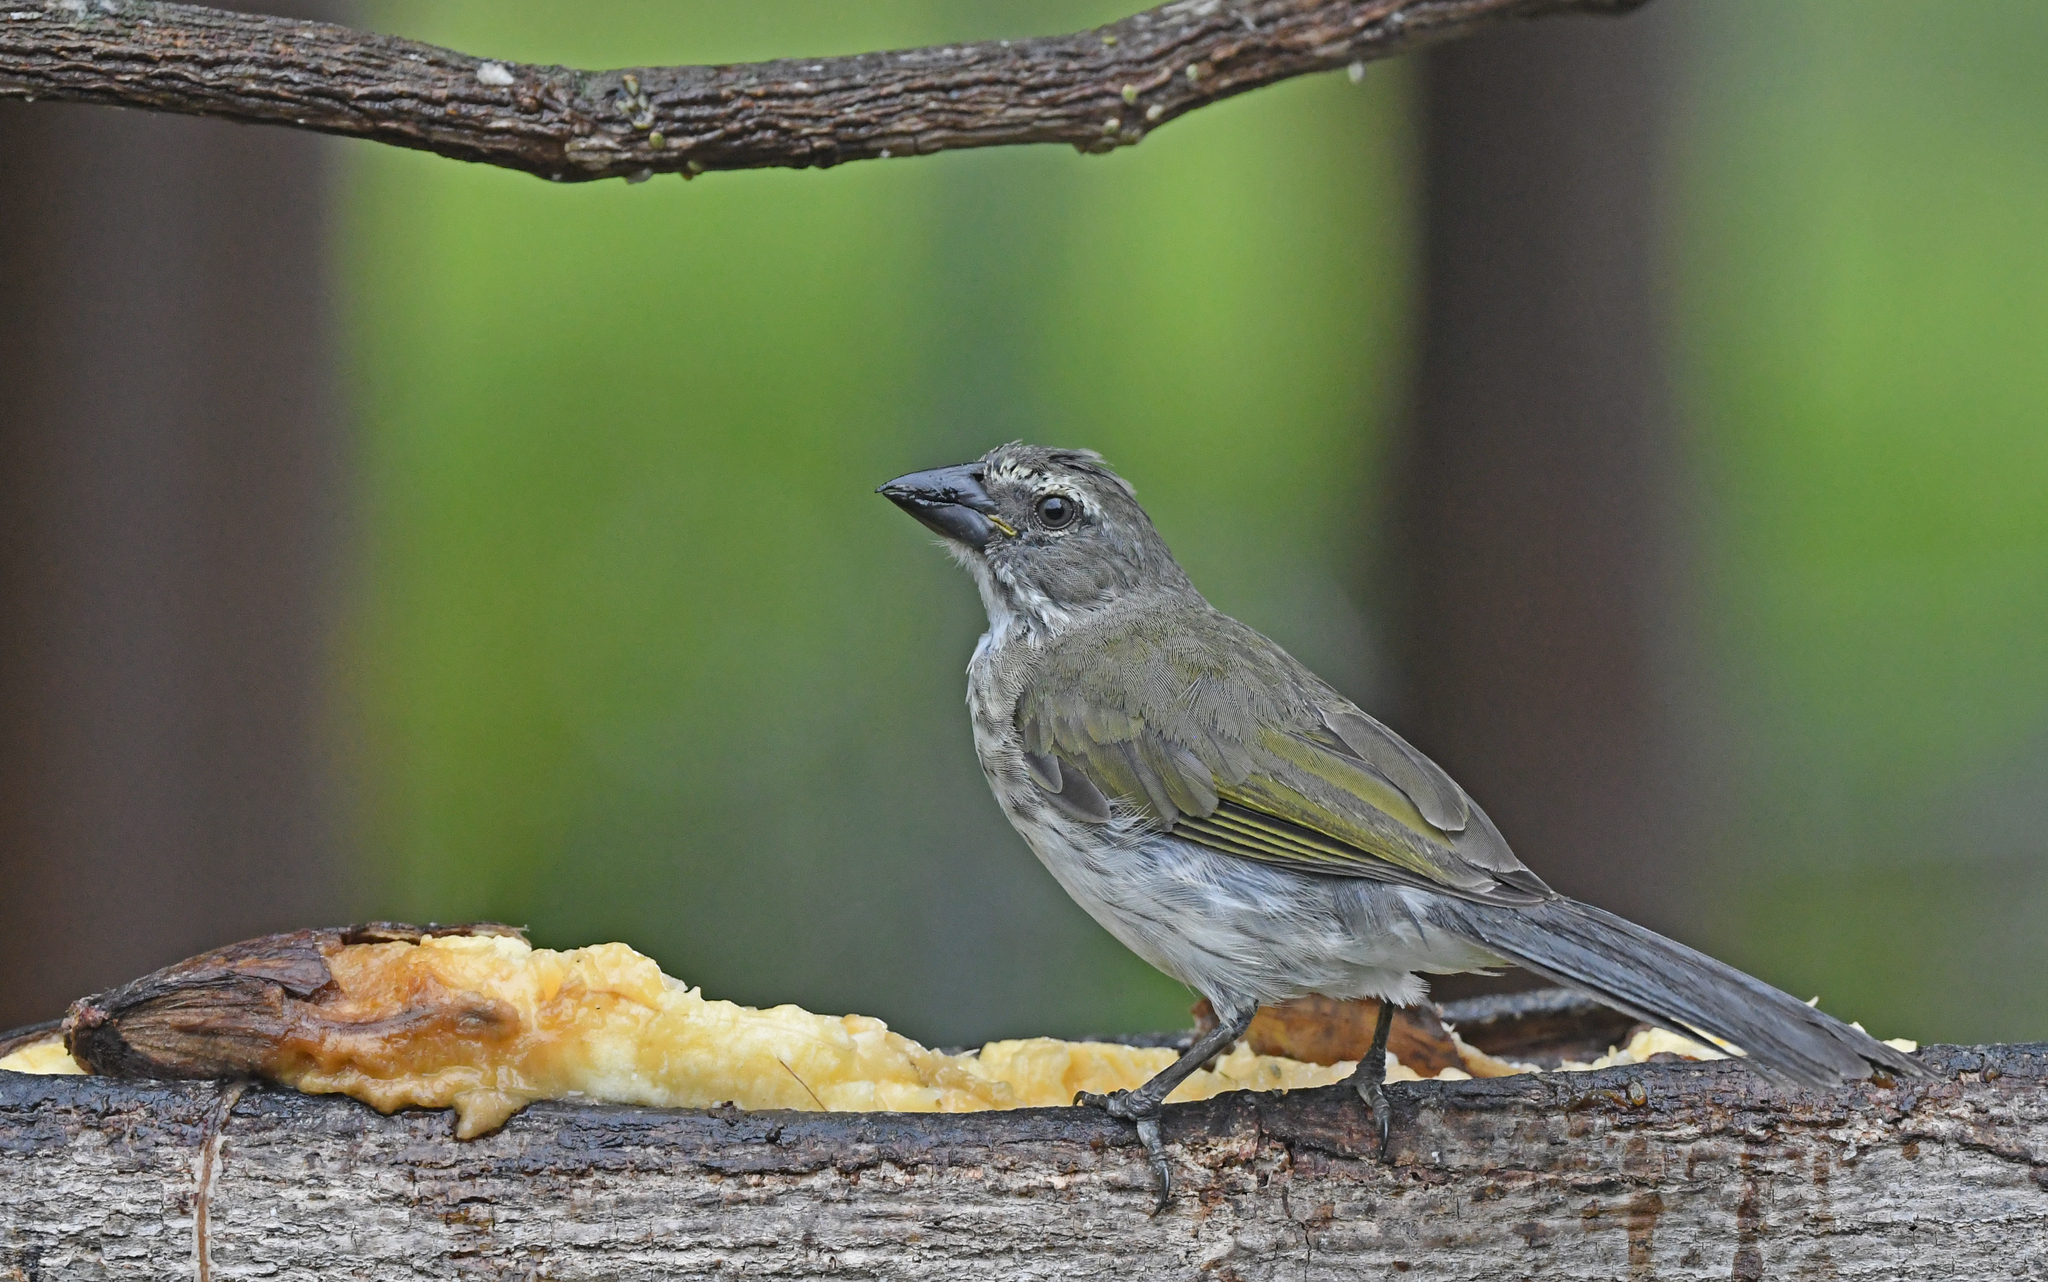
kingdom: Animalia
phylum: Chordata
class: Aves
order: Passeriformes
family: Thraupidae
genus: Saltator
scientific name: Saltator striatipectus
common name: Streaked saltator
